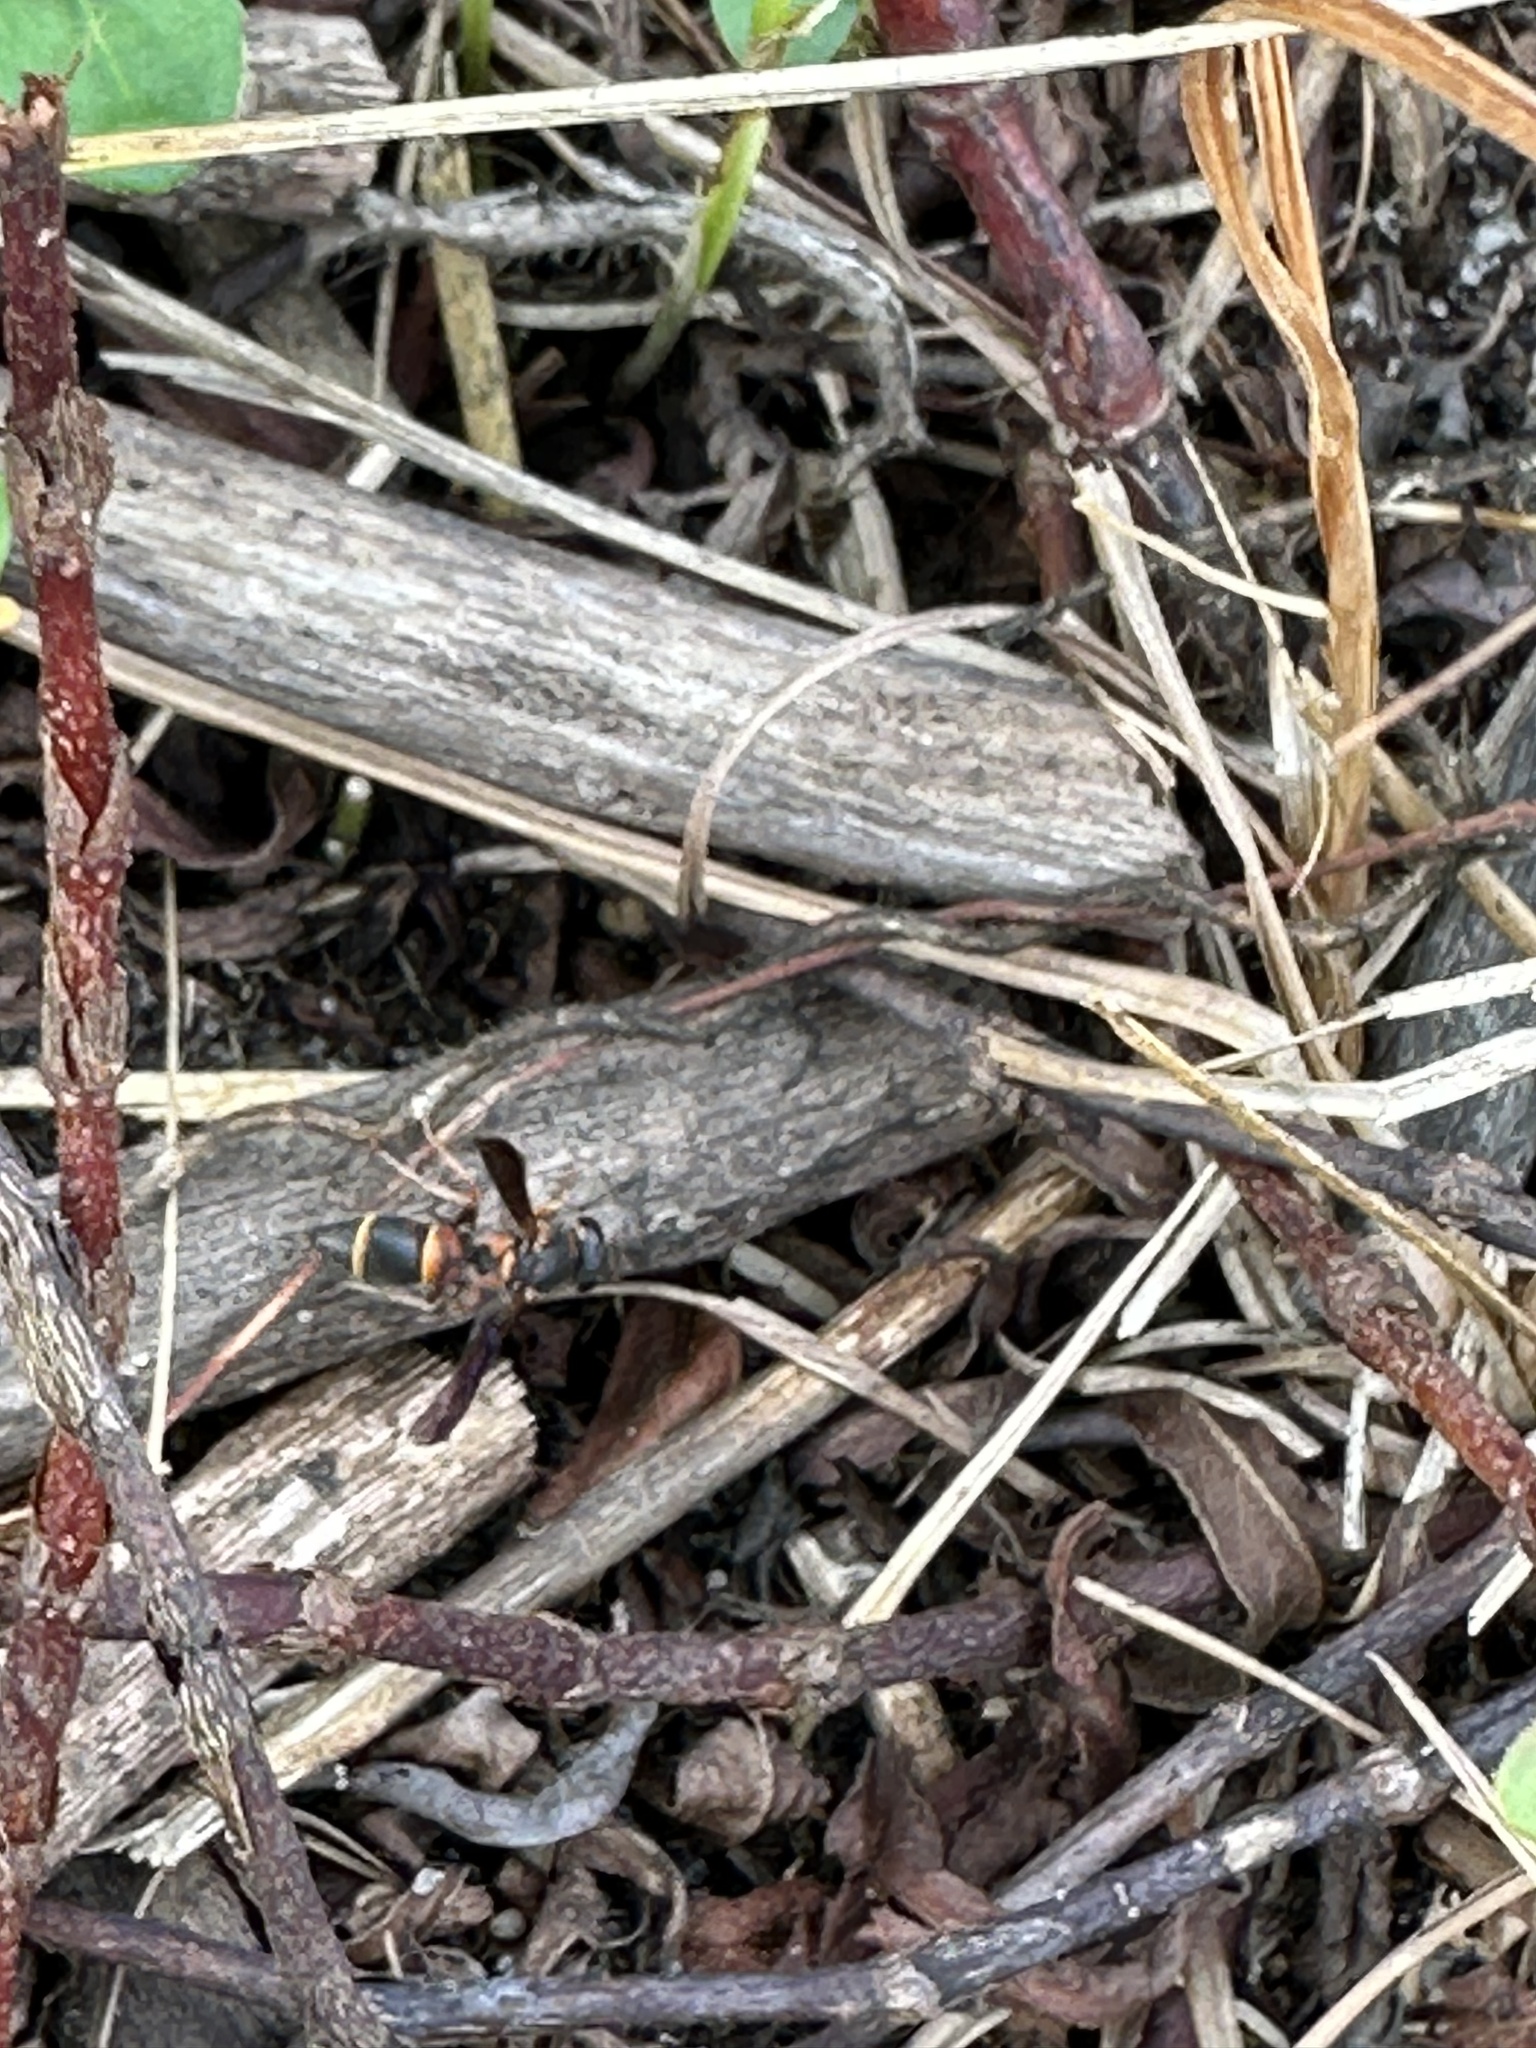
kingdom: Animalia
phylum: Arthropoda
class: Insecta
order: Hymenoptera
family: Eumenidae
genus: Parancistrocerus
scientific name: Parancistrocerus histrio
